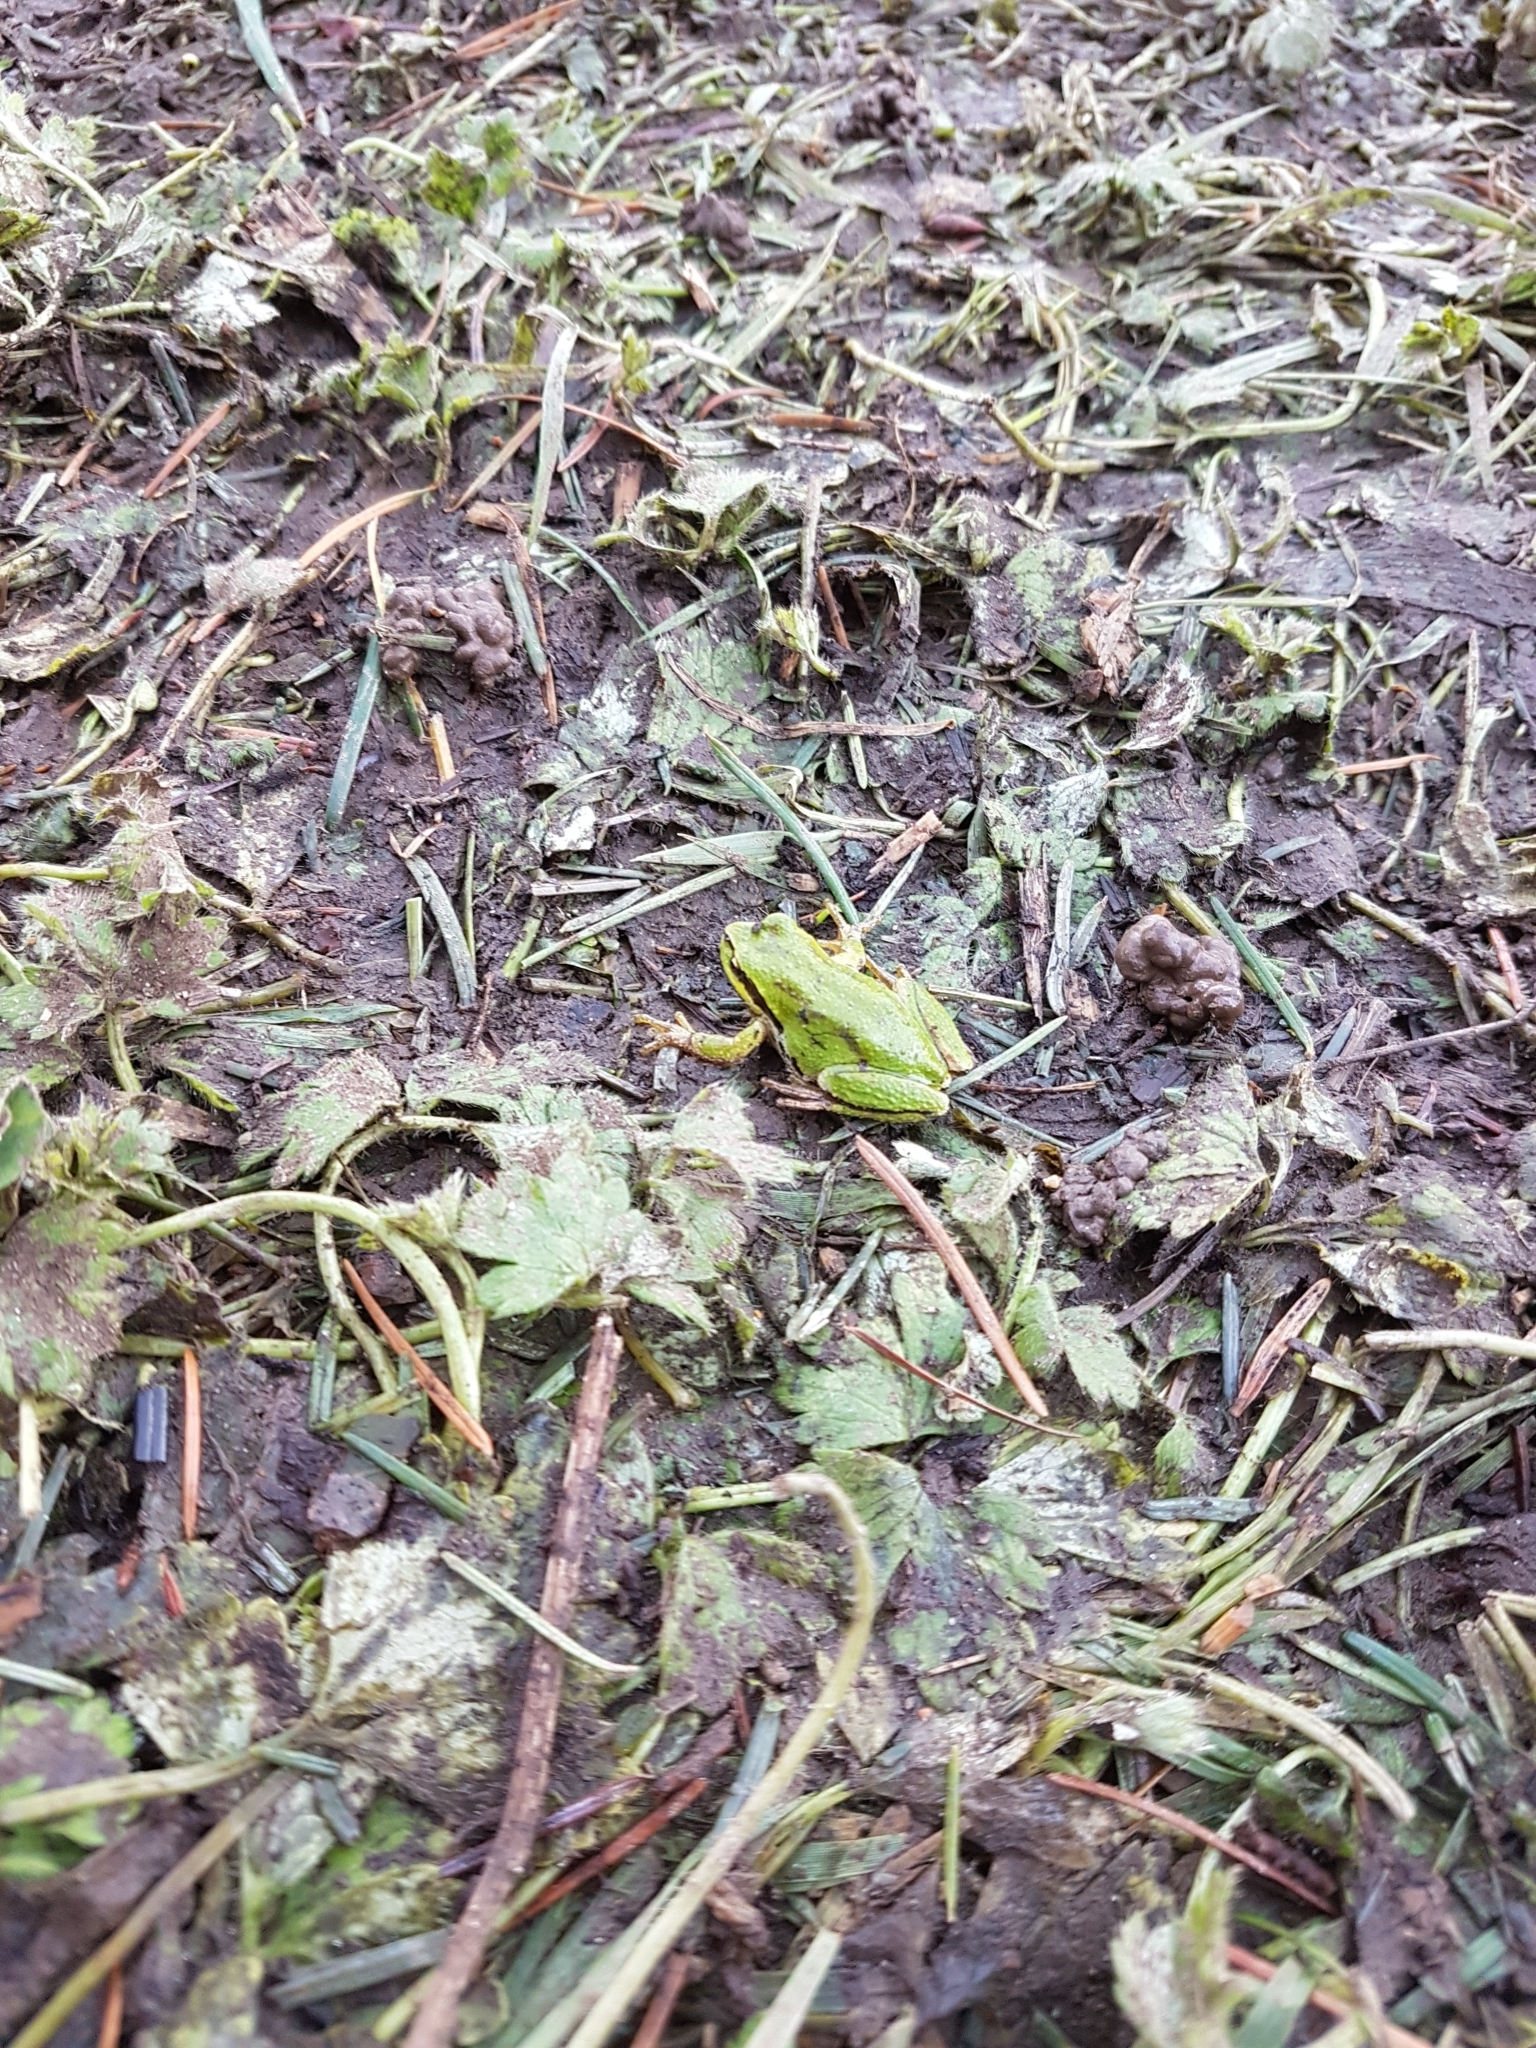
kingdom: Animalia
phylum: Chordata
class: Amphibia
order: Anura
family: Hylidae
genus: Pseudacris
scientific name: Pseudacris regilla
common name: Pacific chorus frog
